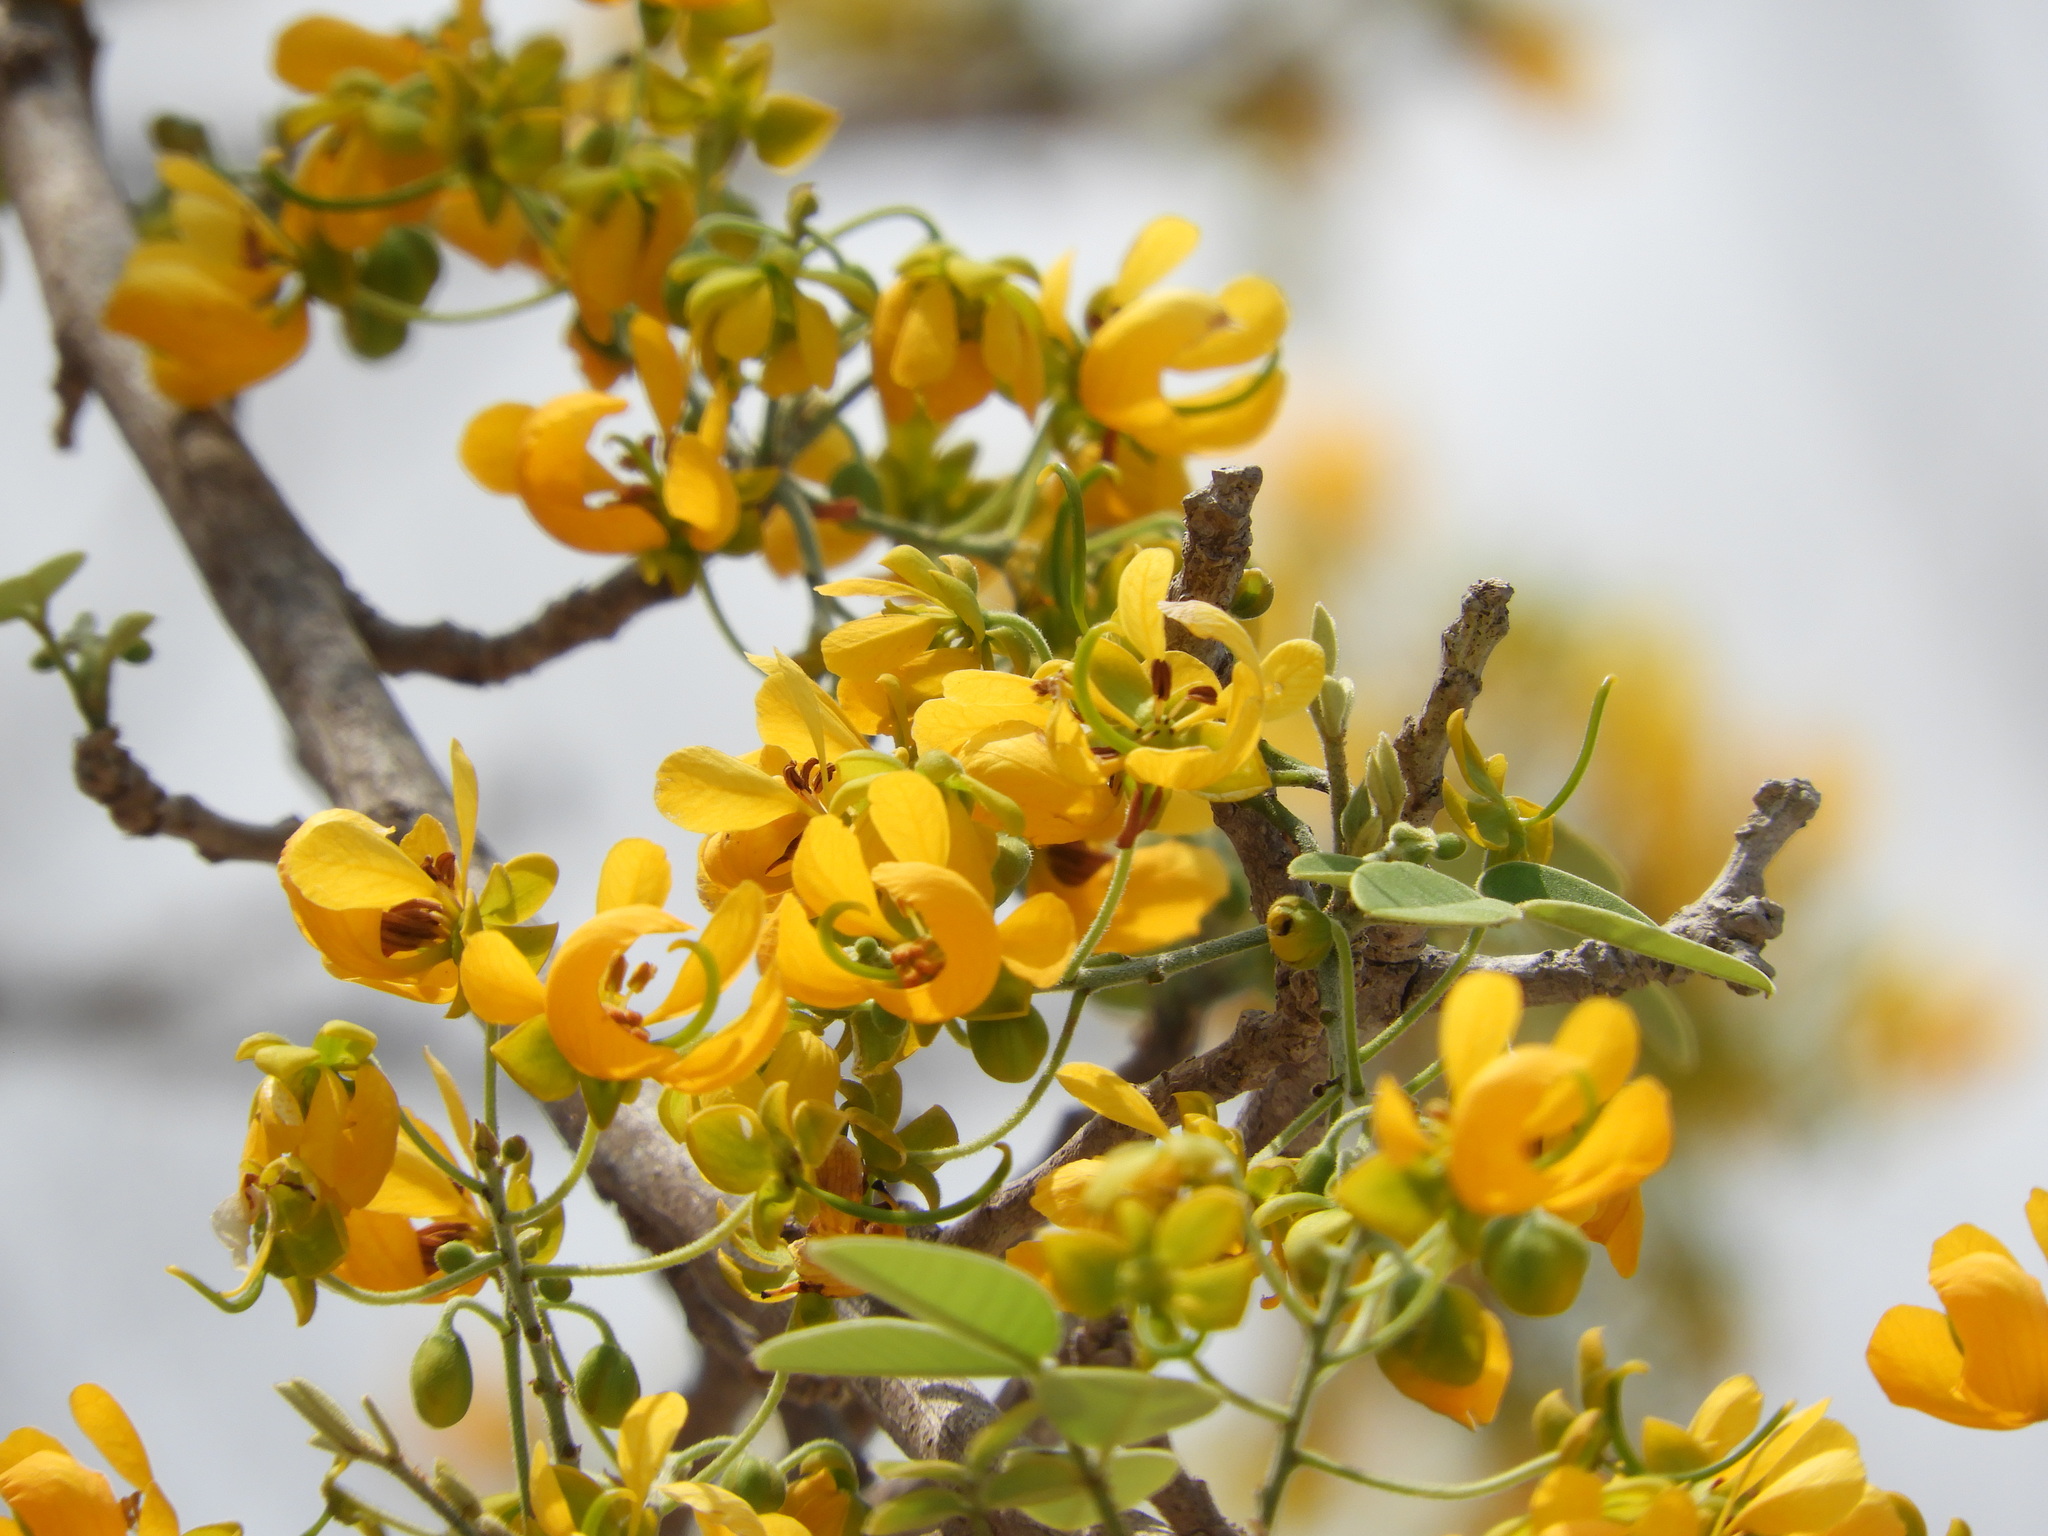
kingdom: Plantae
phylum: Tracheophyta
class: Magnoliopsida
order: Fabales
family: Fabaceae
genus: Senna
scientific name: Senna atomaria
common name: Flor de san jose
